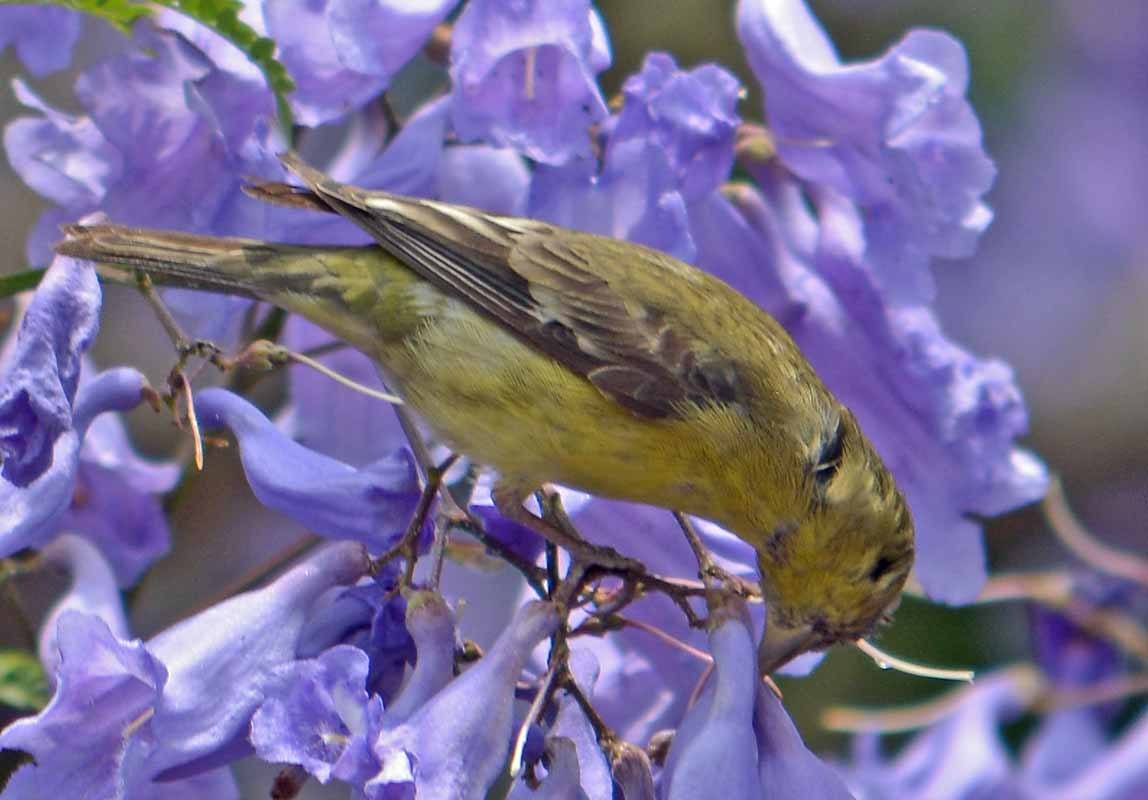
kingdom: Animalia
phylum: Chordata
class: Aves
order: Passeriformes
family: Fringillidae
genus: Spinus
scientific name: Spinus psaltria
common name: Lesser goldfinch
